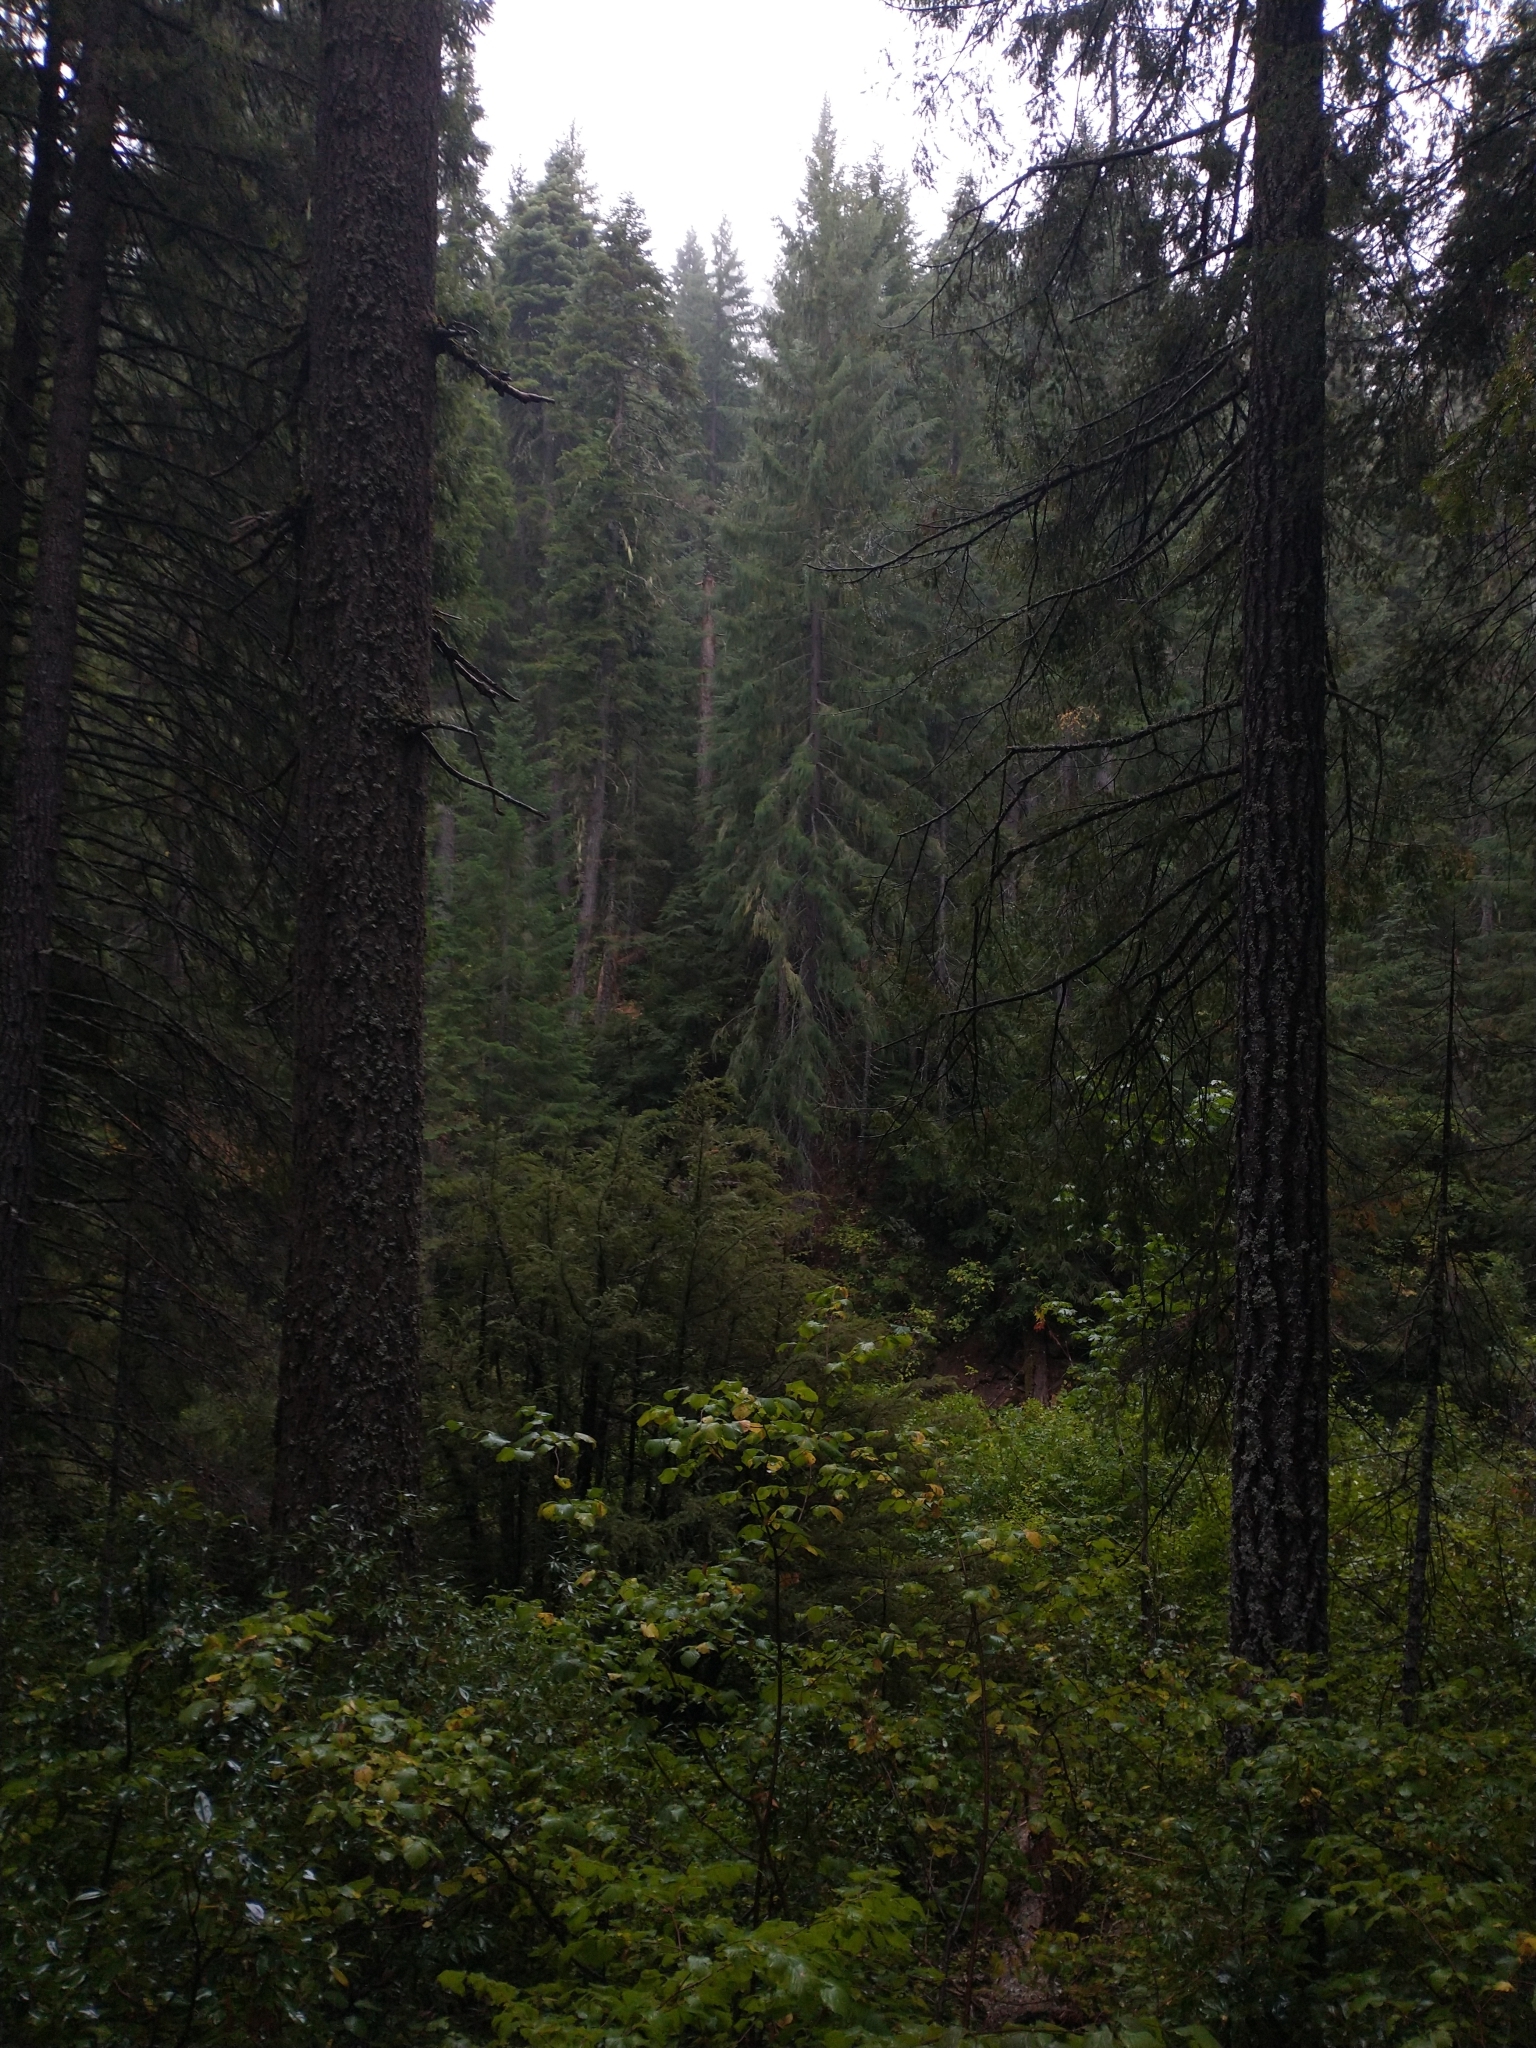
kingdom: Plantae
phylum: Tracheophyta
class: Pinopsida
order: Pinales
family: Pinaceae
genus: Pseudotsuga
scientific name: Pseudotsuga menziesii
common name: Douglas fir
